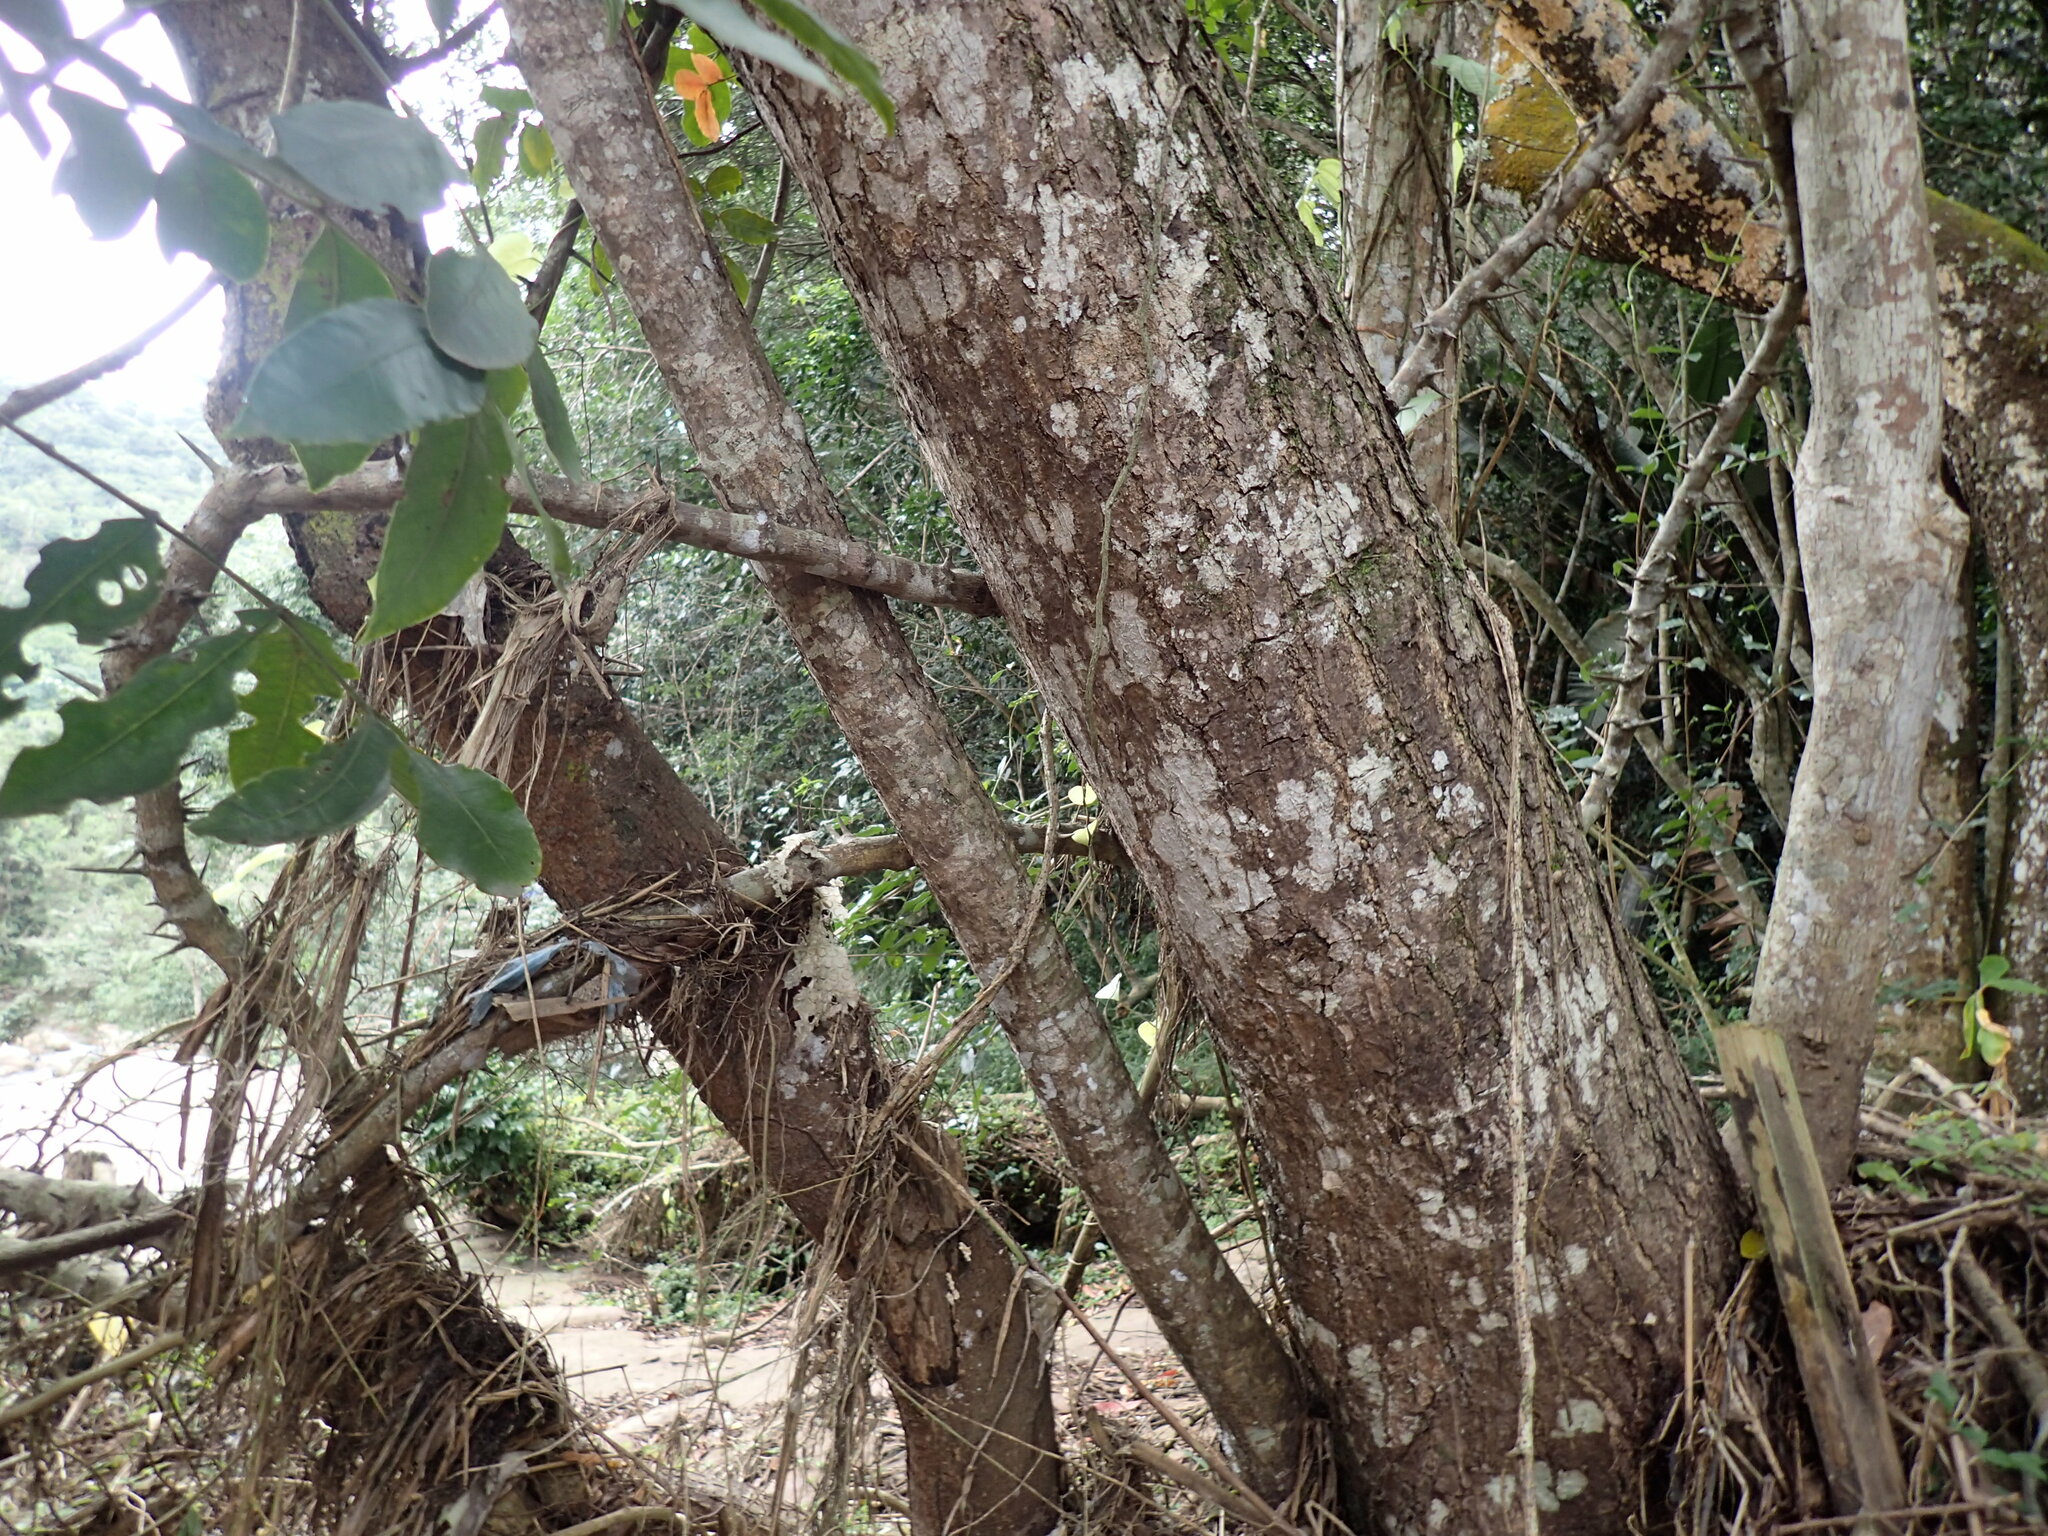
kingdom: Plantae
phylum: Tracheophyta
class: Magnoliopsida
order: Sapindales
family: Anacardiaceae
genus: Harpephyllum
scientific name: Harpephyllum caffrum
